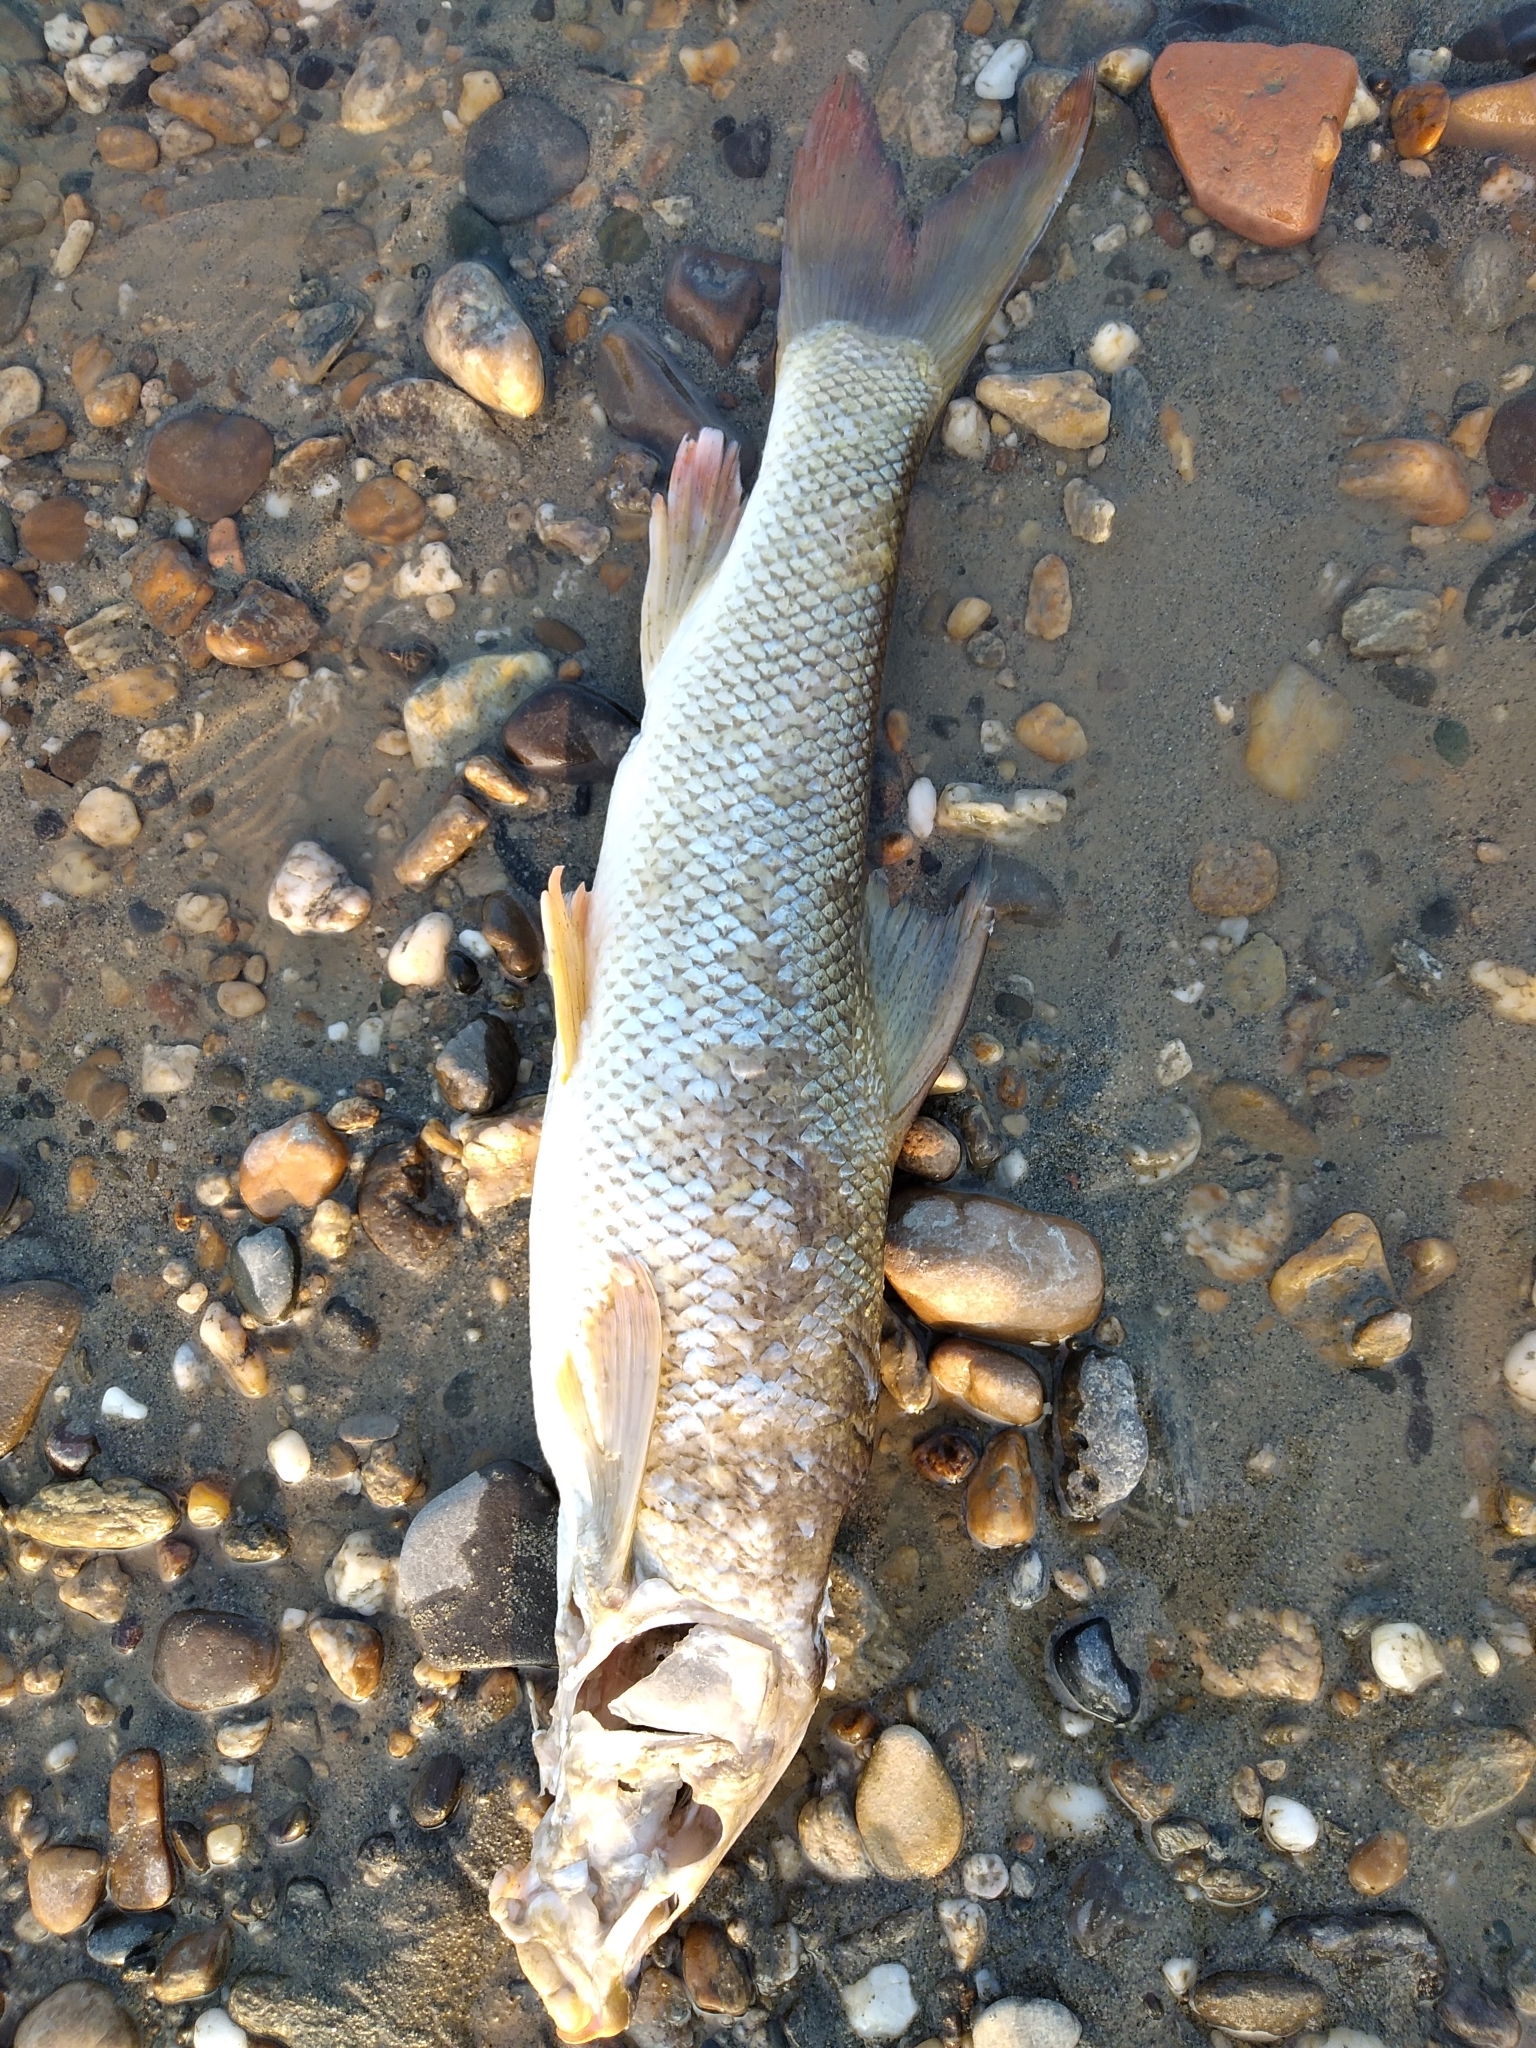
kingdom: Animalia
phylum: Chordata
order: Cypriniformes
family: Cyprinidae
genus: Barbus
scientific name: Barbus barbus
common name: Barbel
